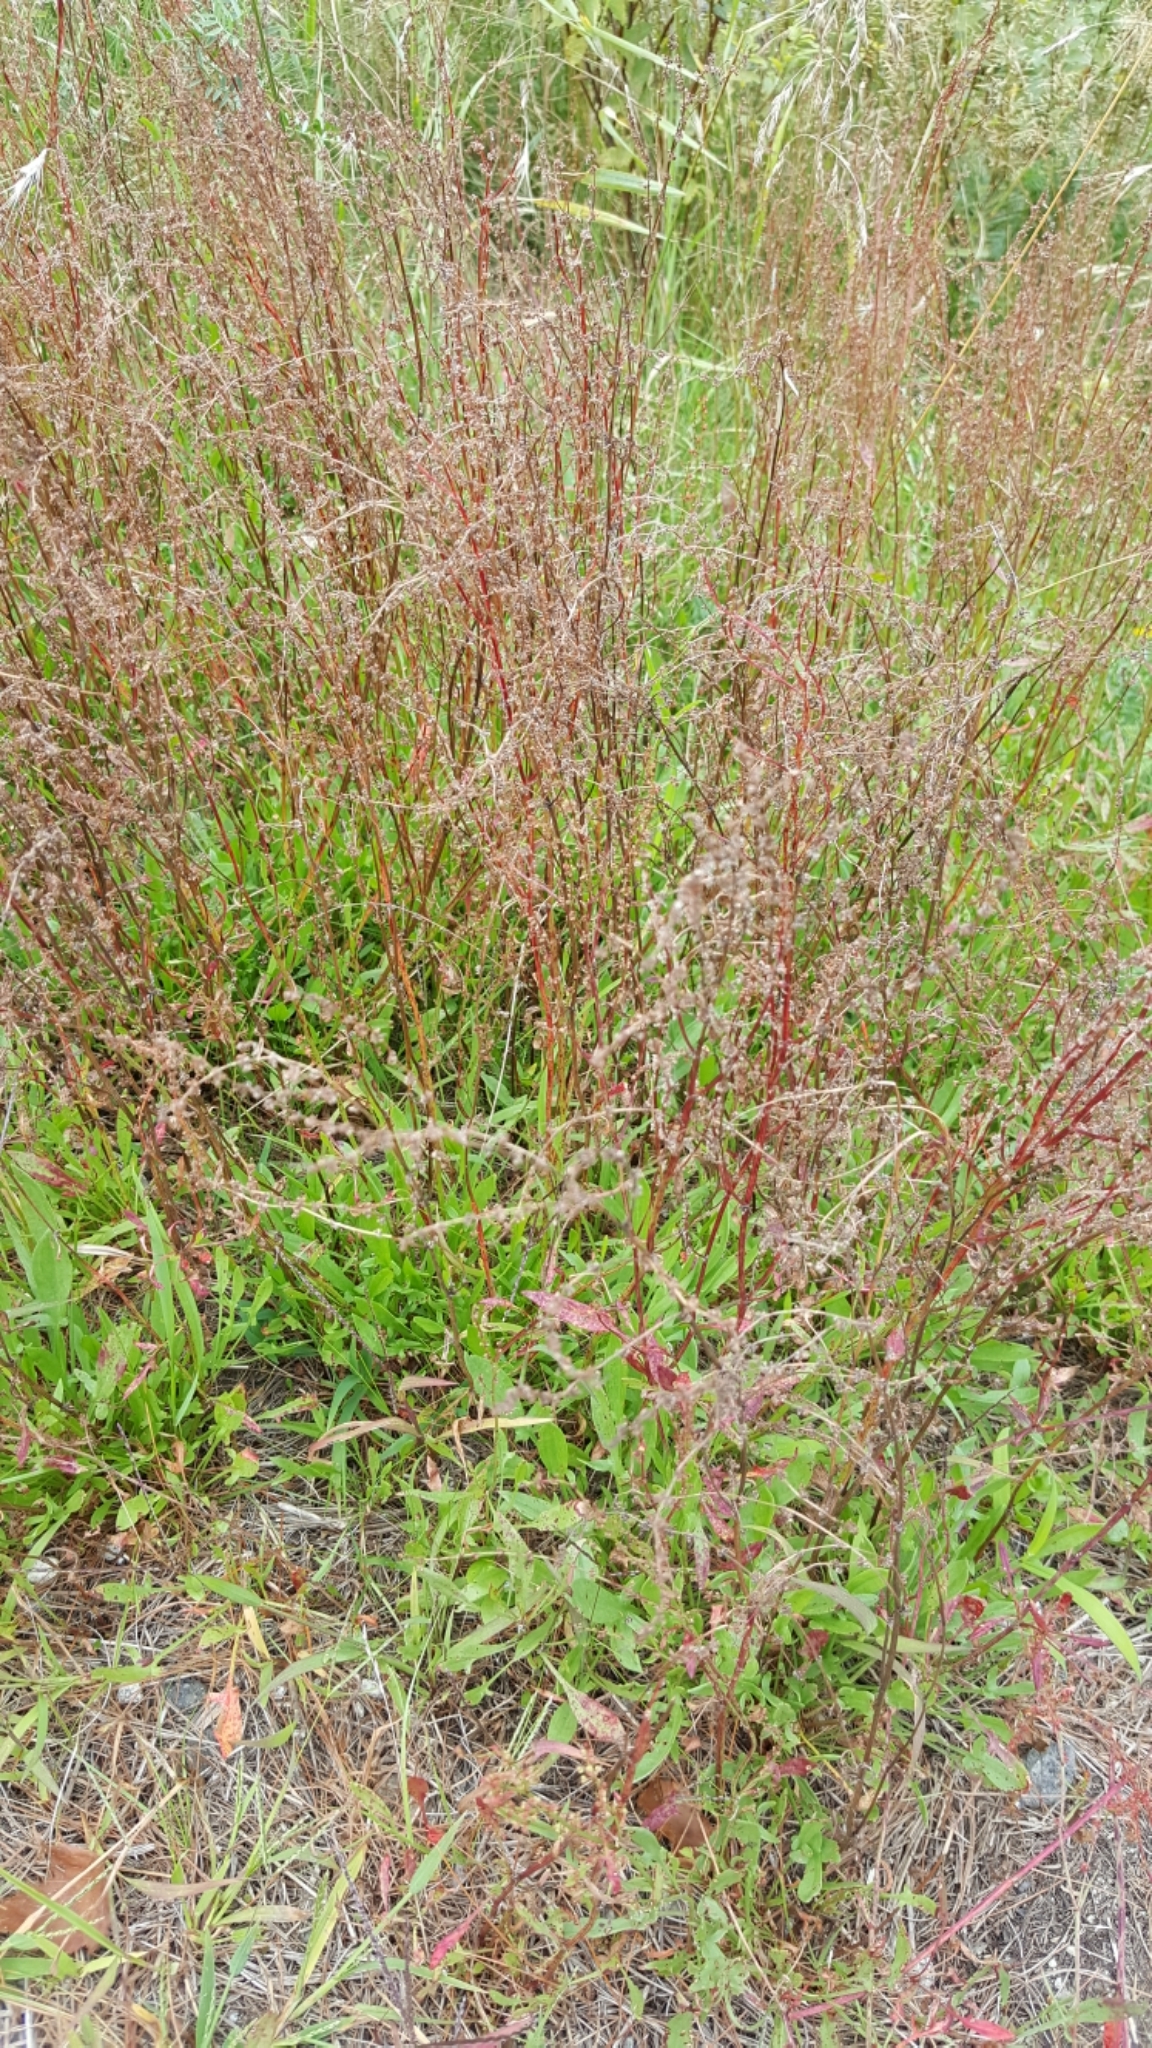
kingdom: Plantae
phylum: Tracheophyta
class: Magnoliopsida
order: Caryophyllales
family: Polygonaceae
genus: Rumex
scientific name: Rumex acetosella
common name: Common sheep sorrel
